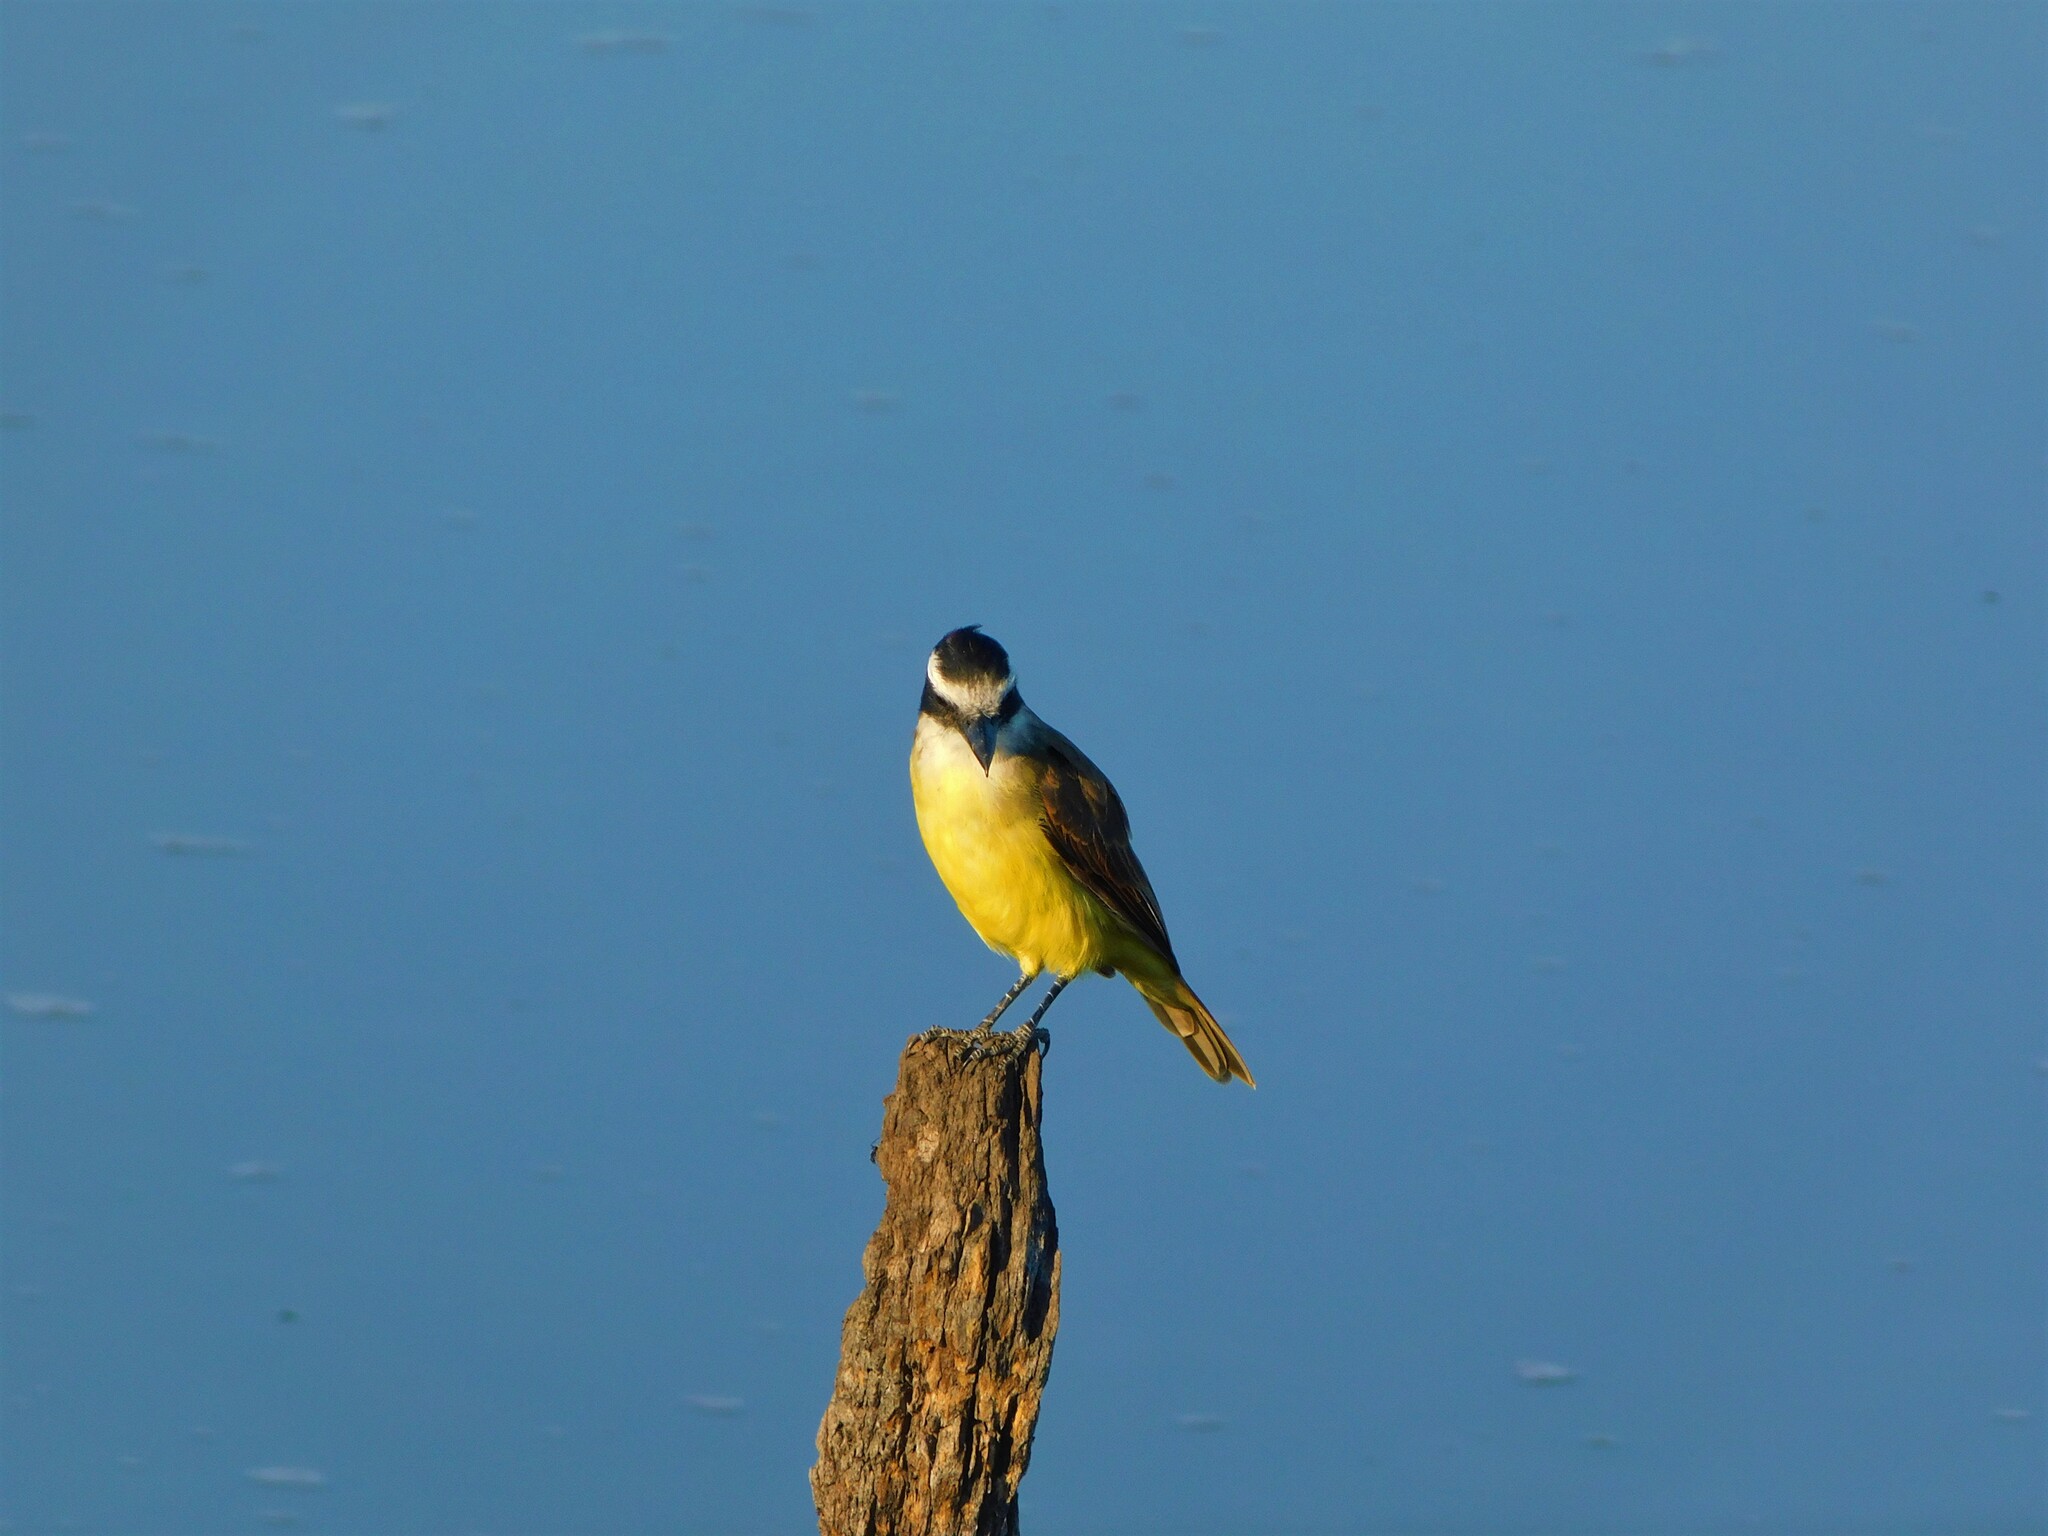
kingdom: Animalia
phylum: Chordata
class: Aves
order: Passeriformes
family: Tyrannidae
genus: Pitangus
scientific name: Pitangus sulphuratus
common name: Great kiskadee
